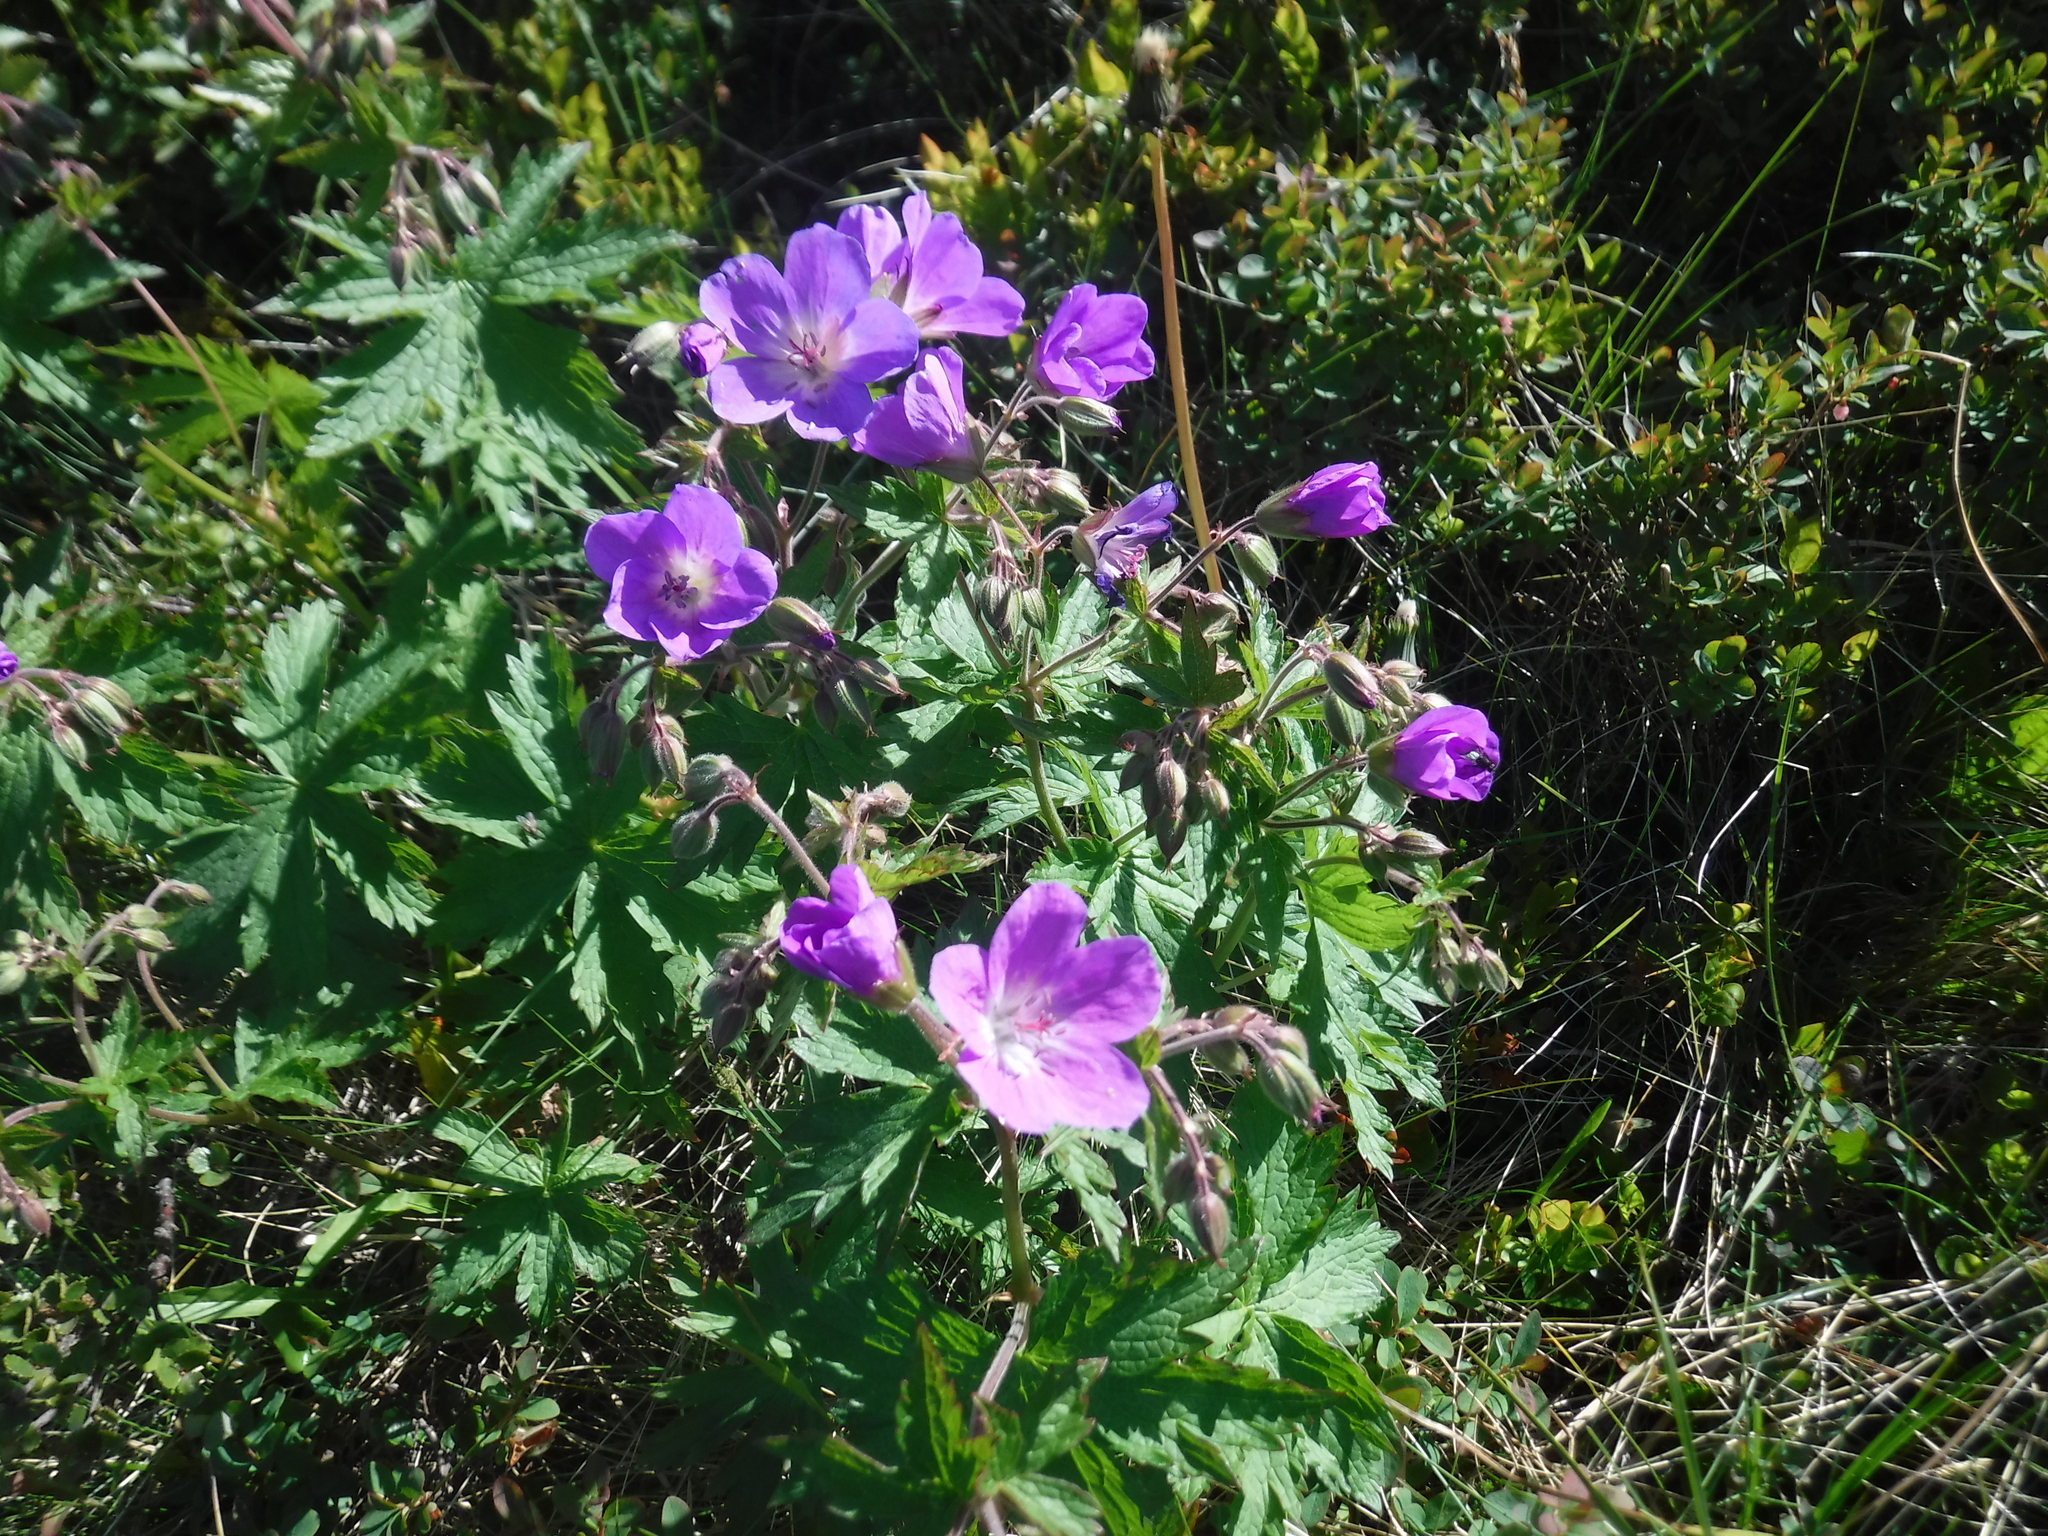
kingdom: Plantae
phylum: Tracheophyta
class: Magnoliopsida
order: Geraniales
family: Geraniaceae
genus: Geranium
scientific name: Geranium sylvaticum
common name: Wood crane's-bill
